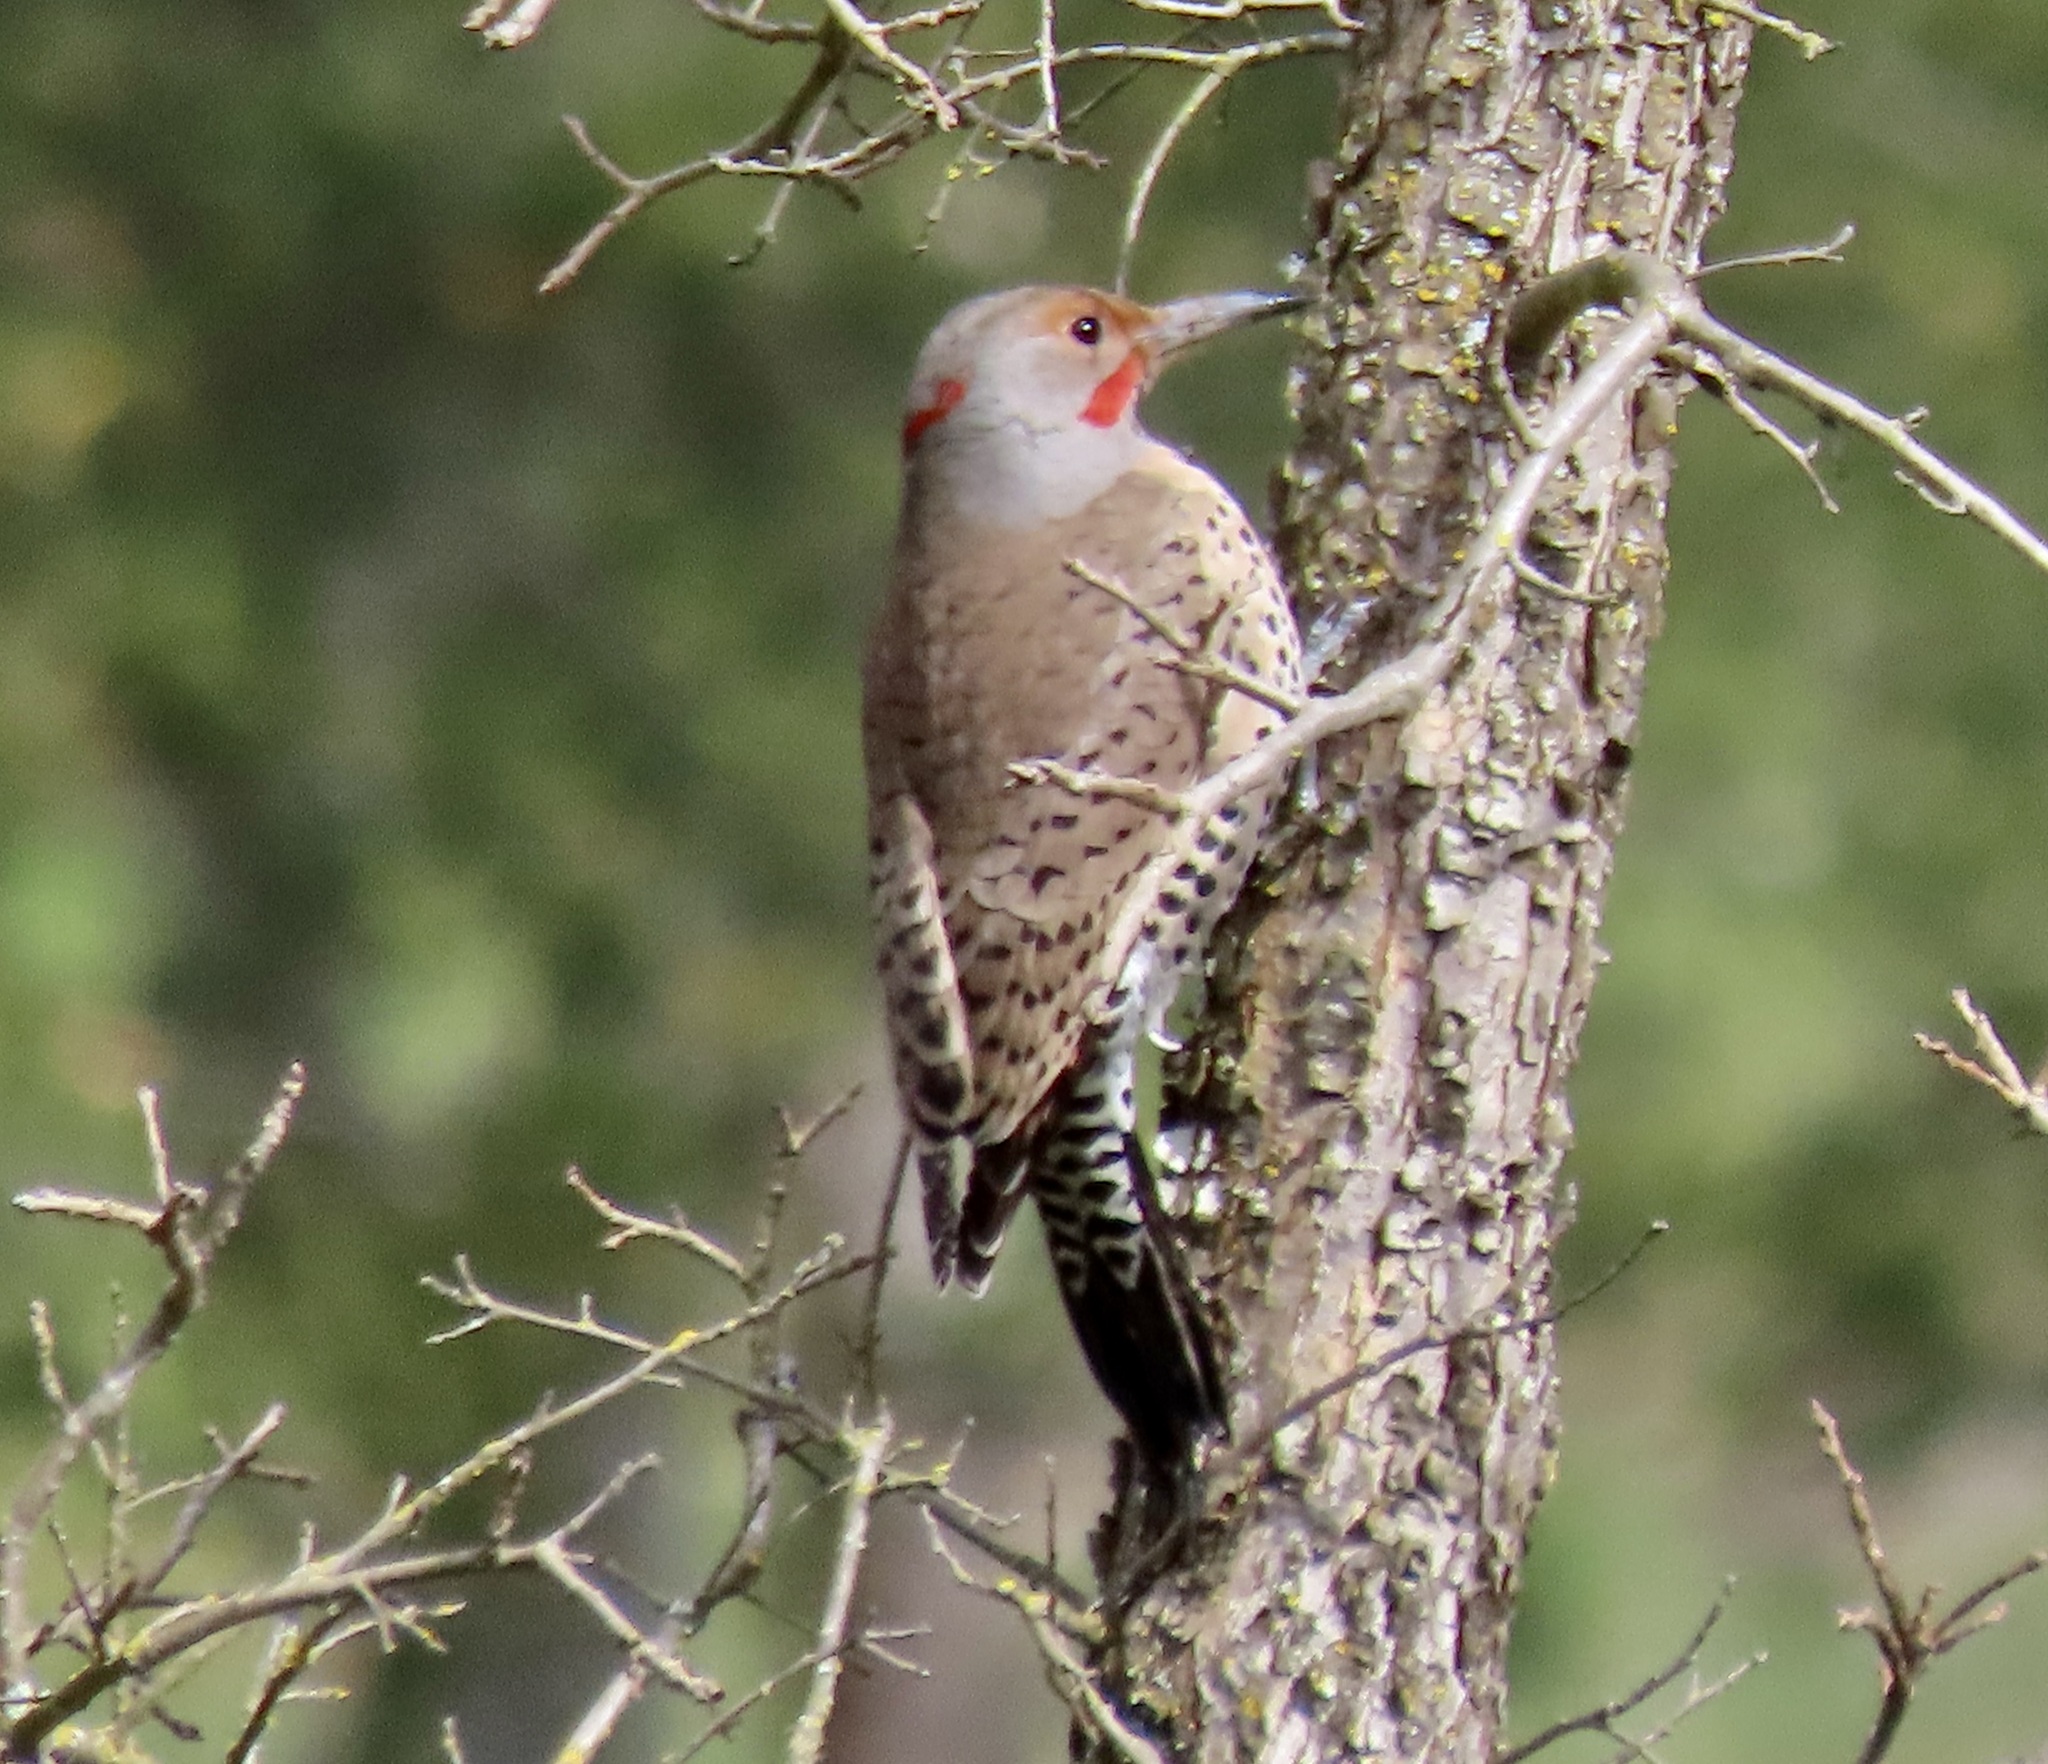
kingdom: Animalia
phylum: Chordata
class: Aves
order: Piciformes
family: Picidae
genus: Colaptes
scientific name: Colaptes auratus
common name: Northern flicker
